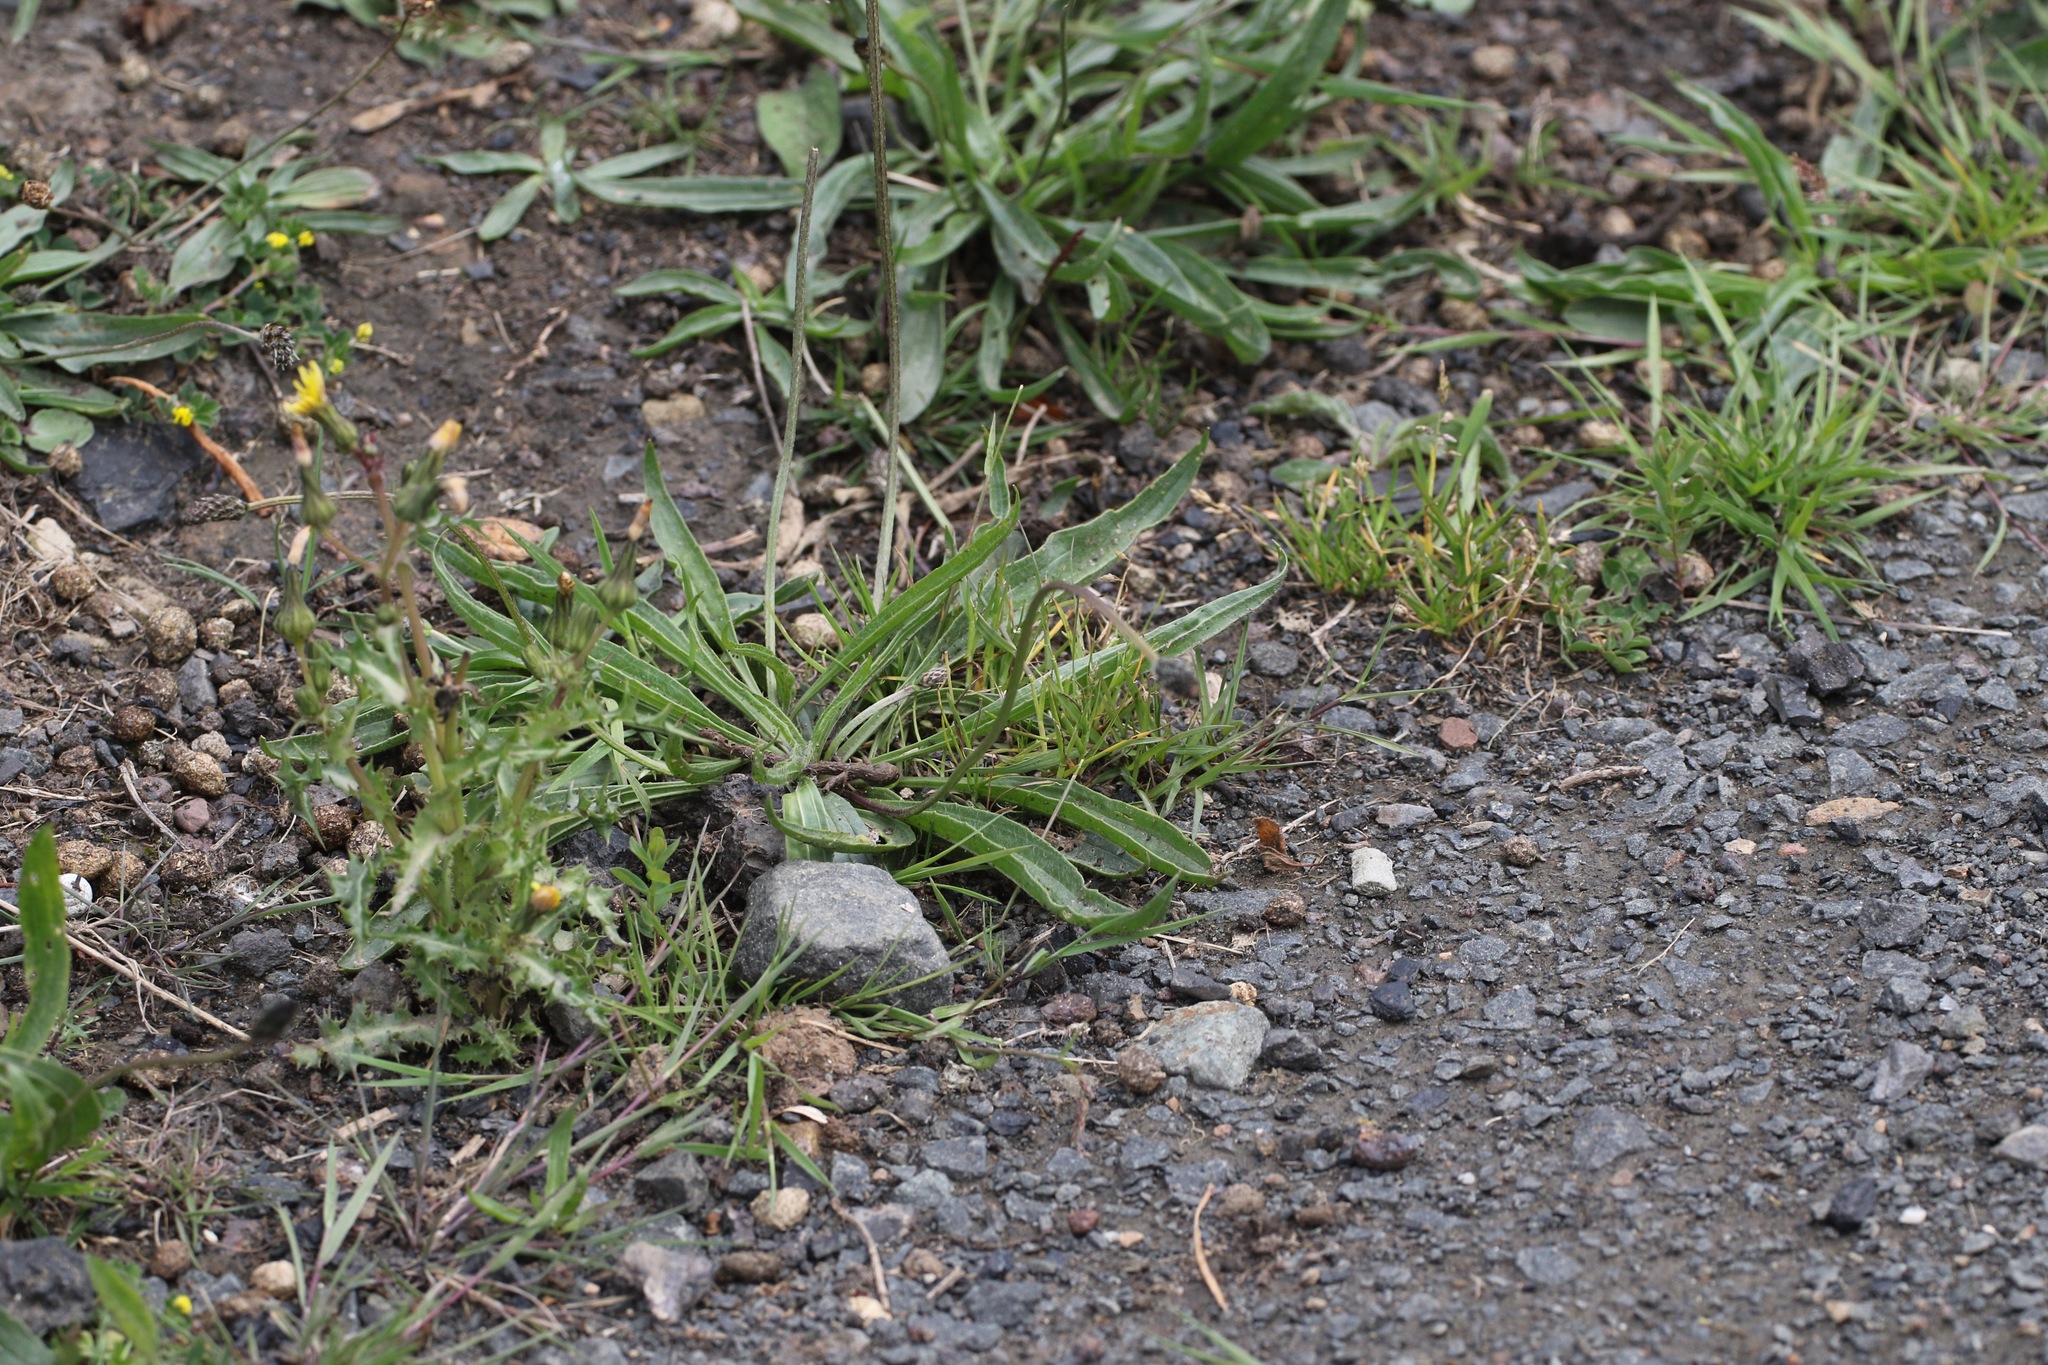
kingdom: Plantae
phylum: Tracheophyta
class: Magnoliopsida
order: Lamiales
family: Plantaginaceae
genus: Plantago
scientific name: Plantago lanceolata
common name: Ribwort plantain
